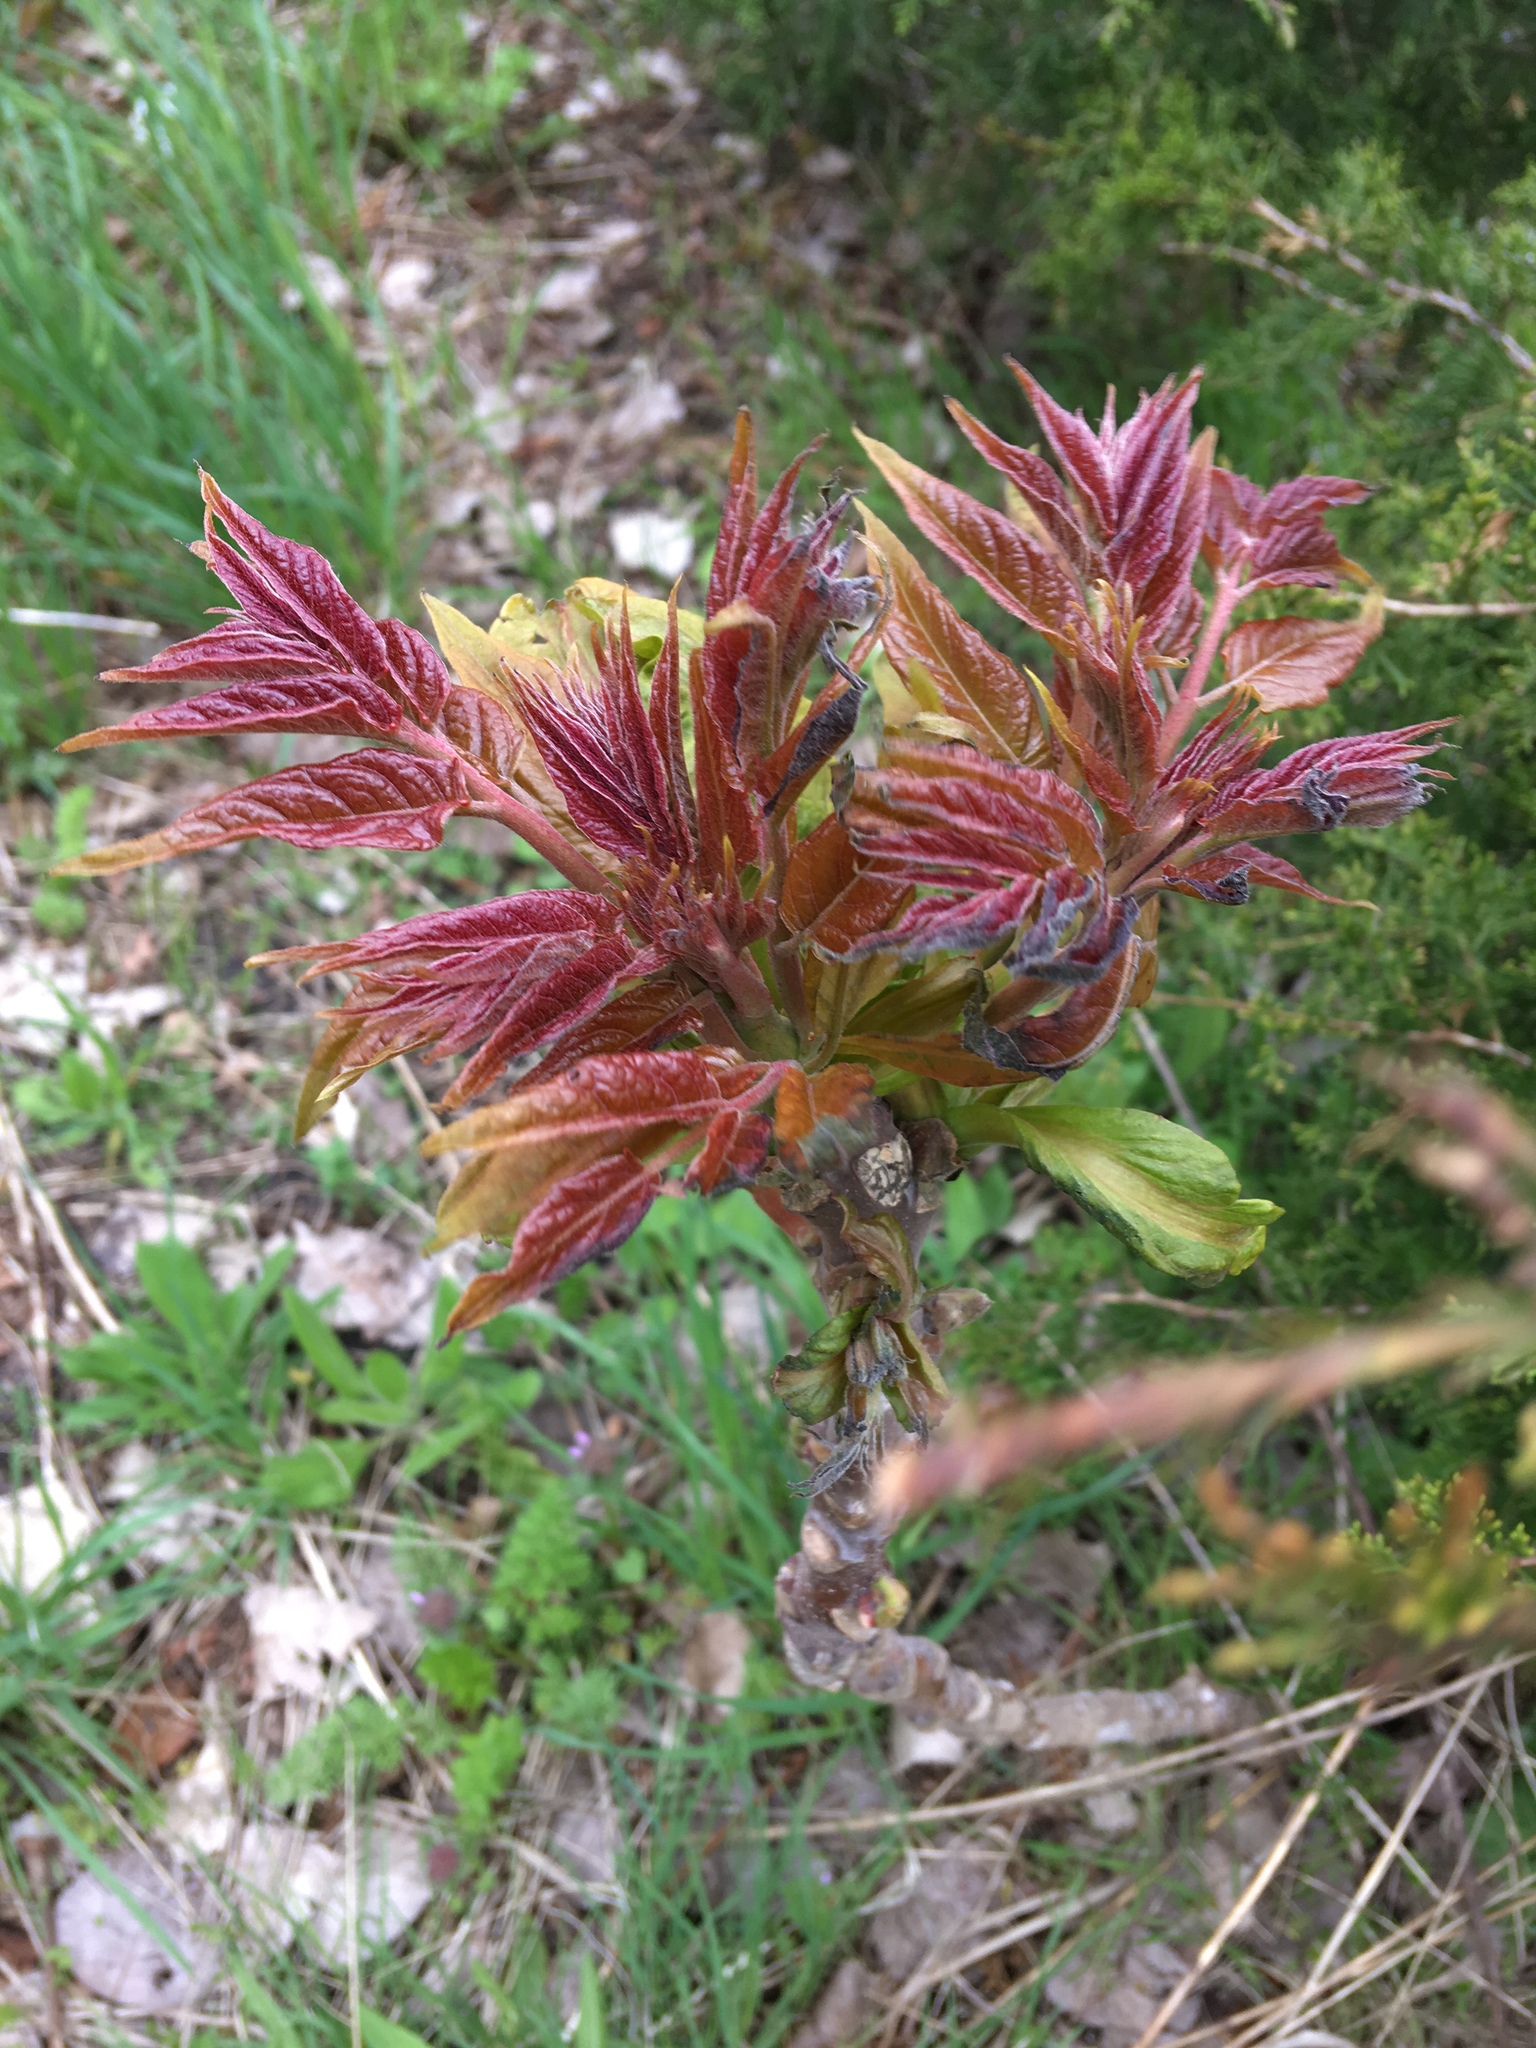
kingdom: Plantae
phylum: Tracheophyta
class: Magnoliopsida
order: Sapindales
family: Simaroubaceae
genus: Ailanthus
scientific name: Ailanthus altissima
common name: Tree-of-heaven
